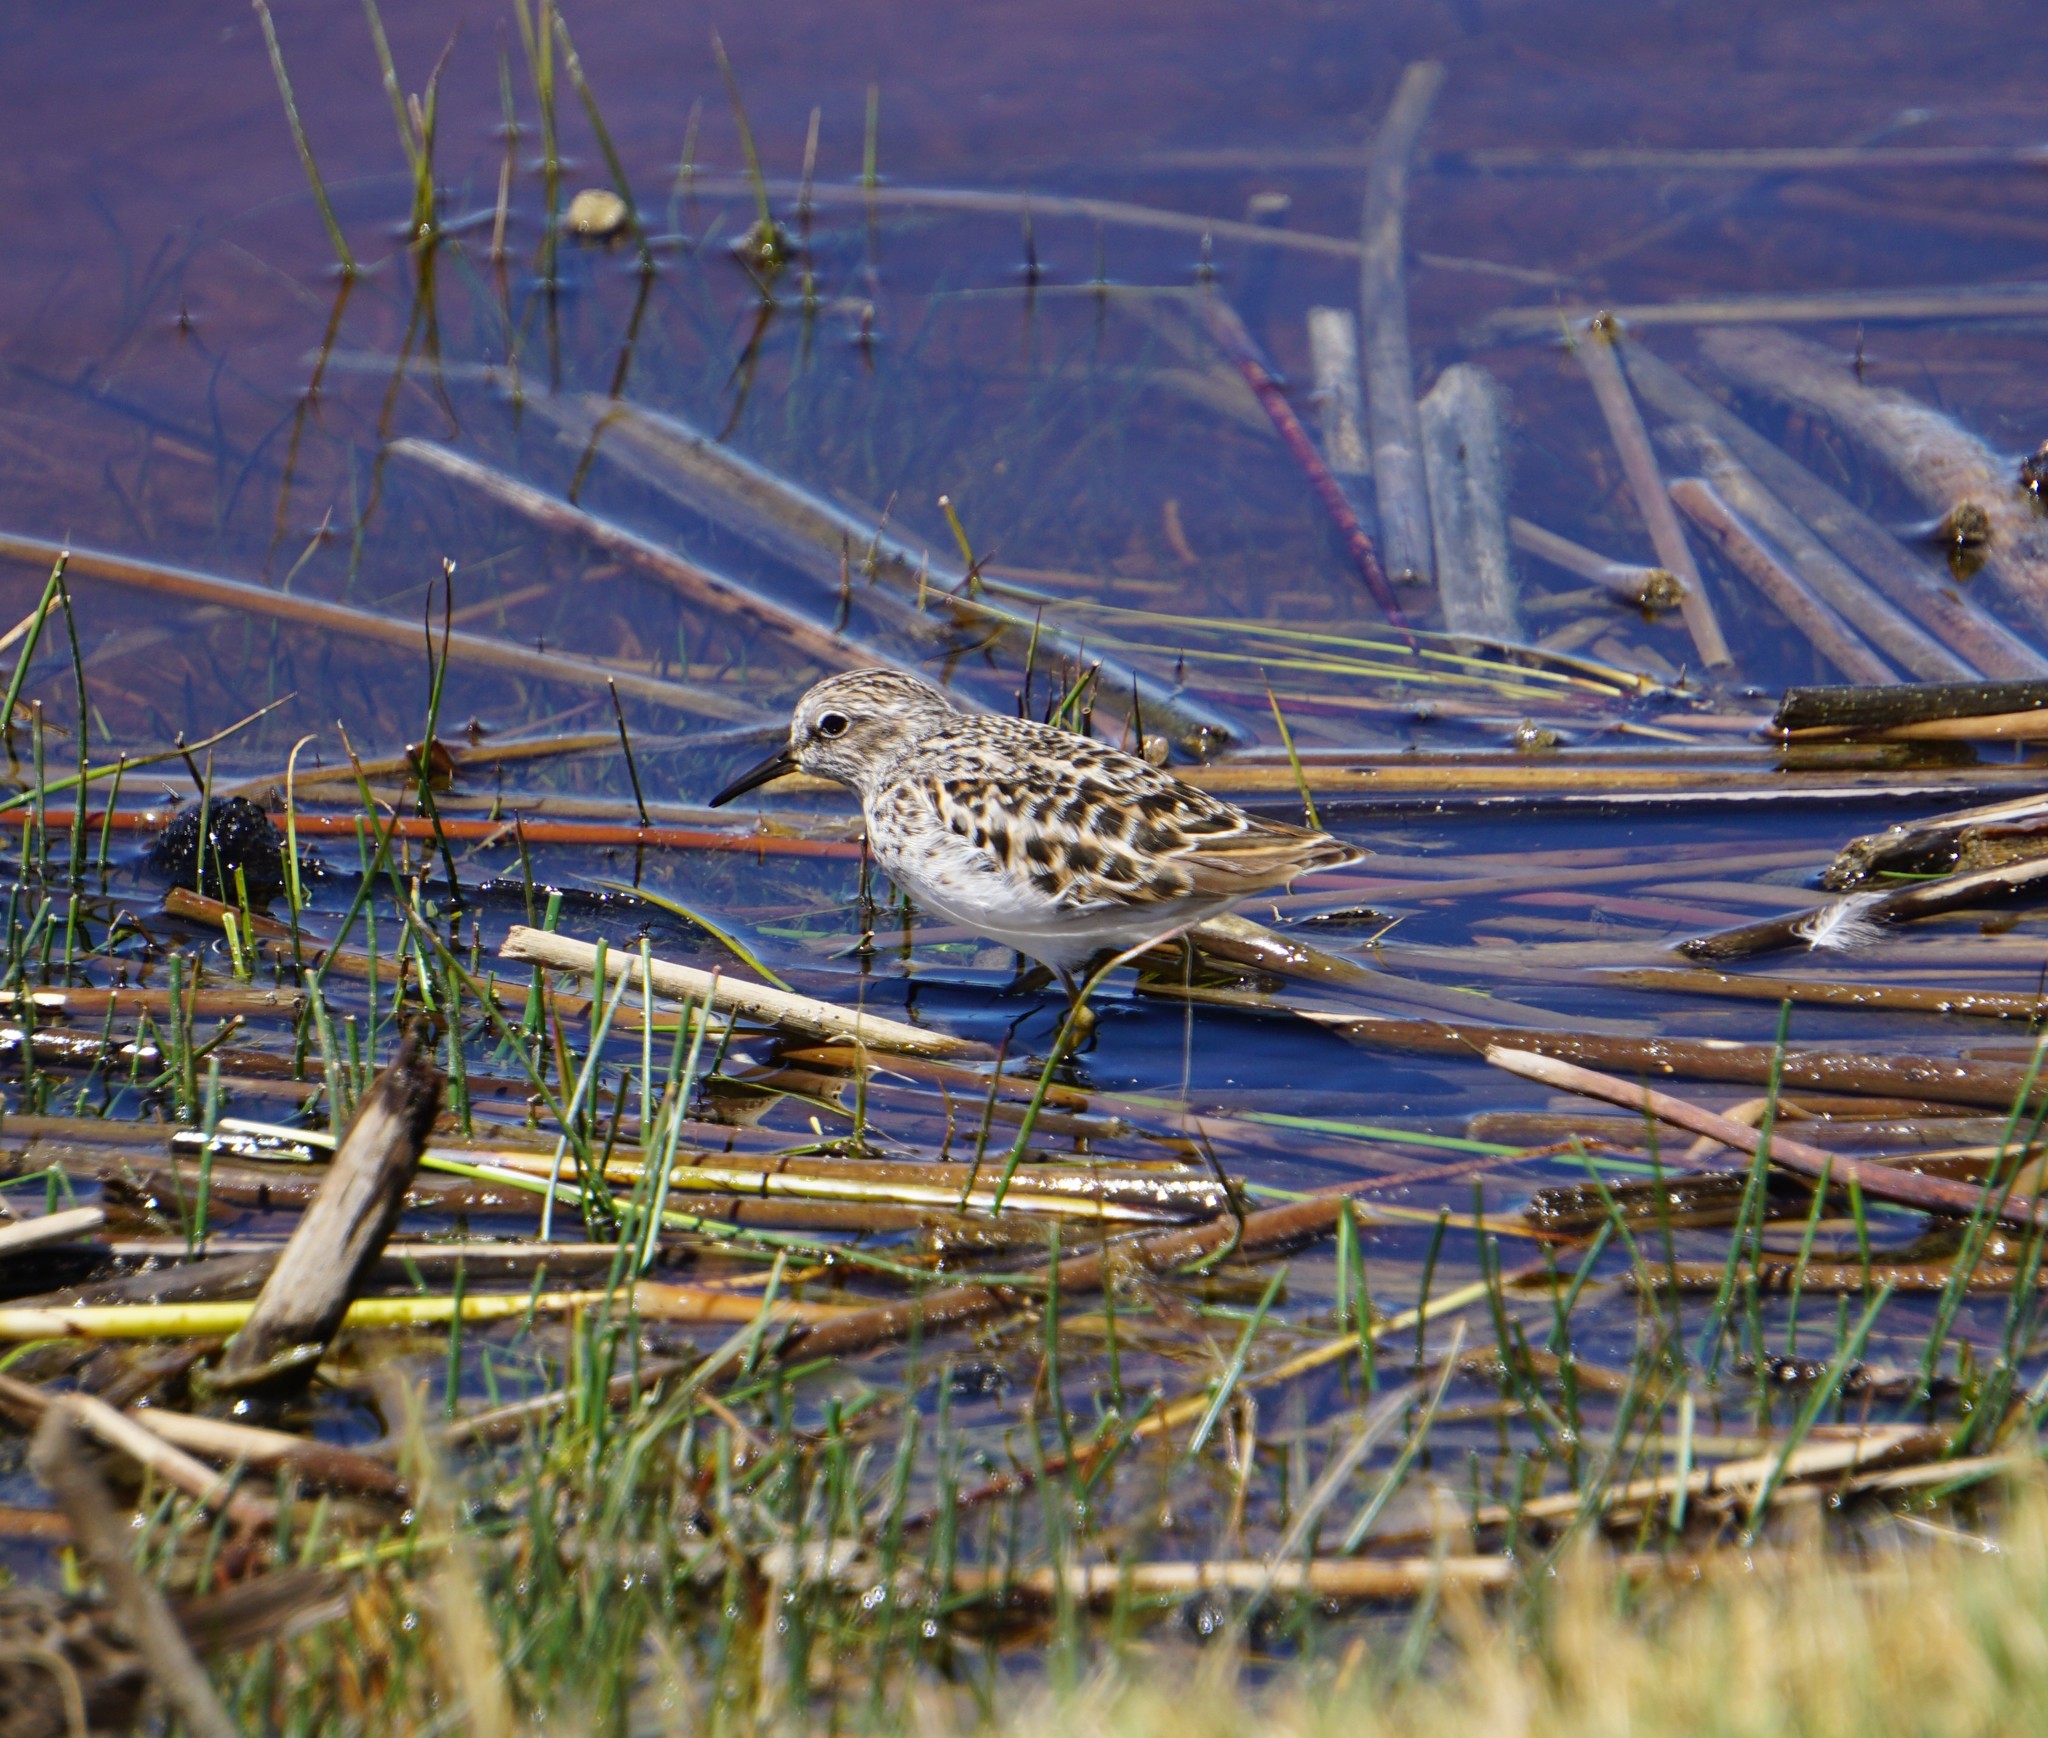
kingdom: Animalia
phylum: Chordata
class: Aves
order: Charadriiformes
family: Scolopacidae
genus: Calidris
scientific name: Calidris minutilla
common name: Least sandpiper
